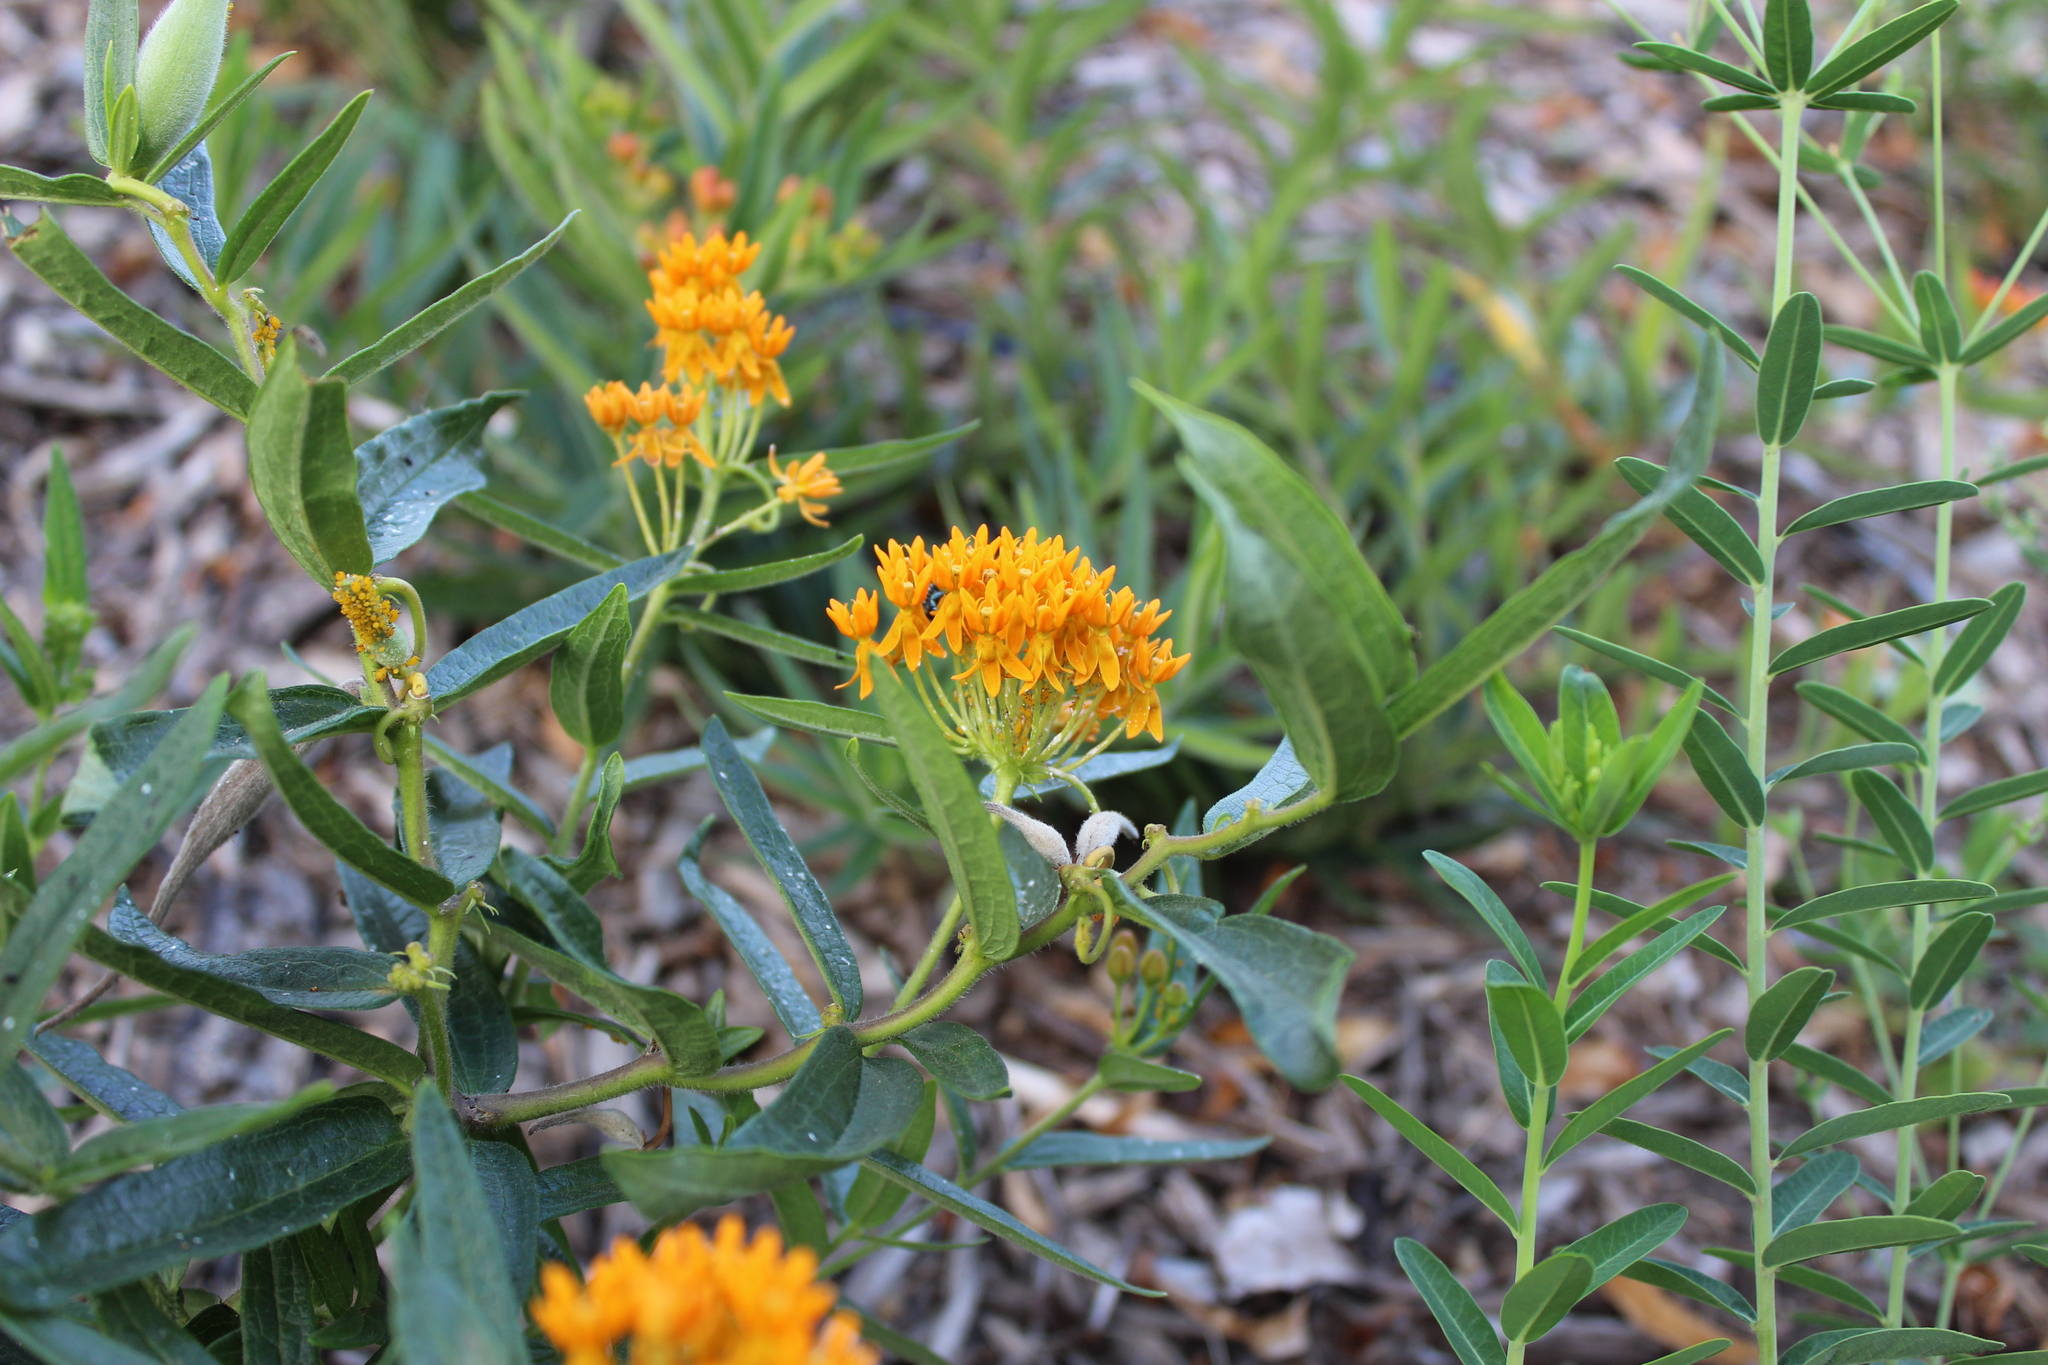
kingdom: Plantae
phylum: Tracheophyta
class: Magnoliopsida
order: Gentianales
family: Apocynaceae
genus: Asclepias
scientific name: Asclepias tuberosa
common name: Butterfly milkweed
